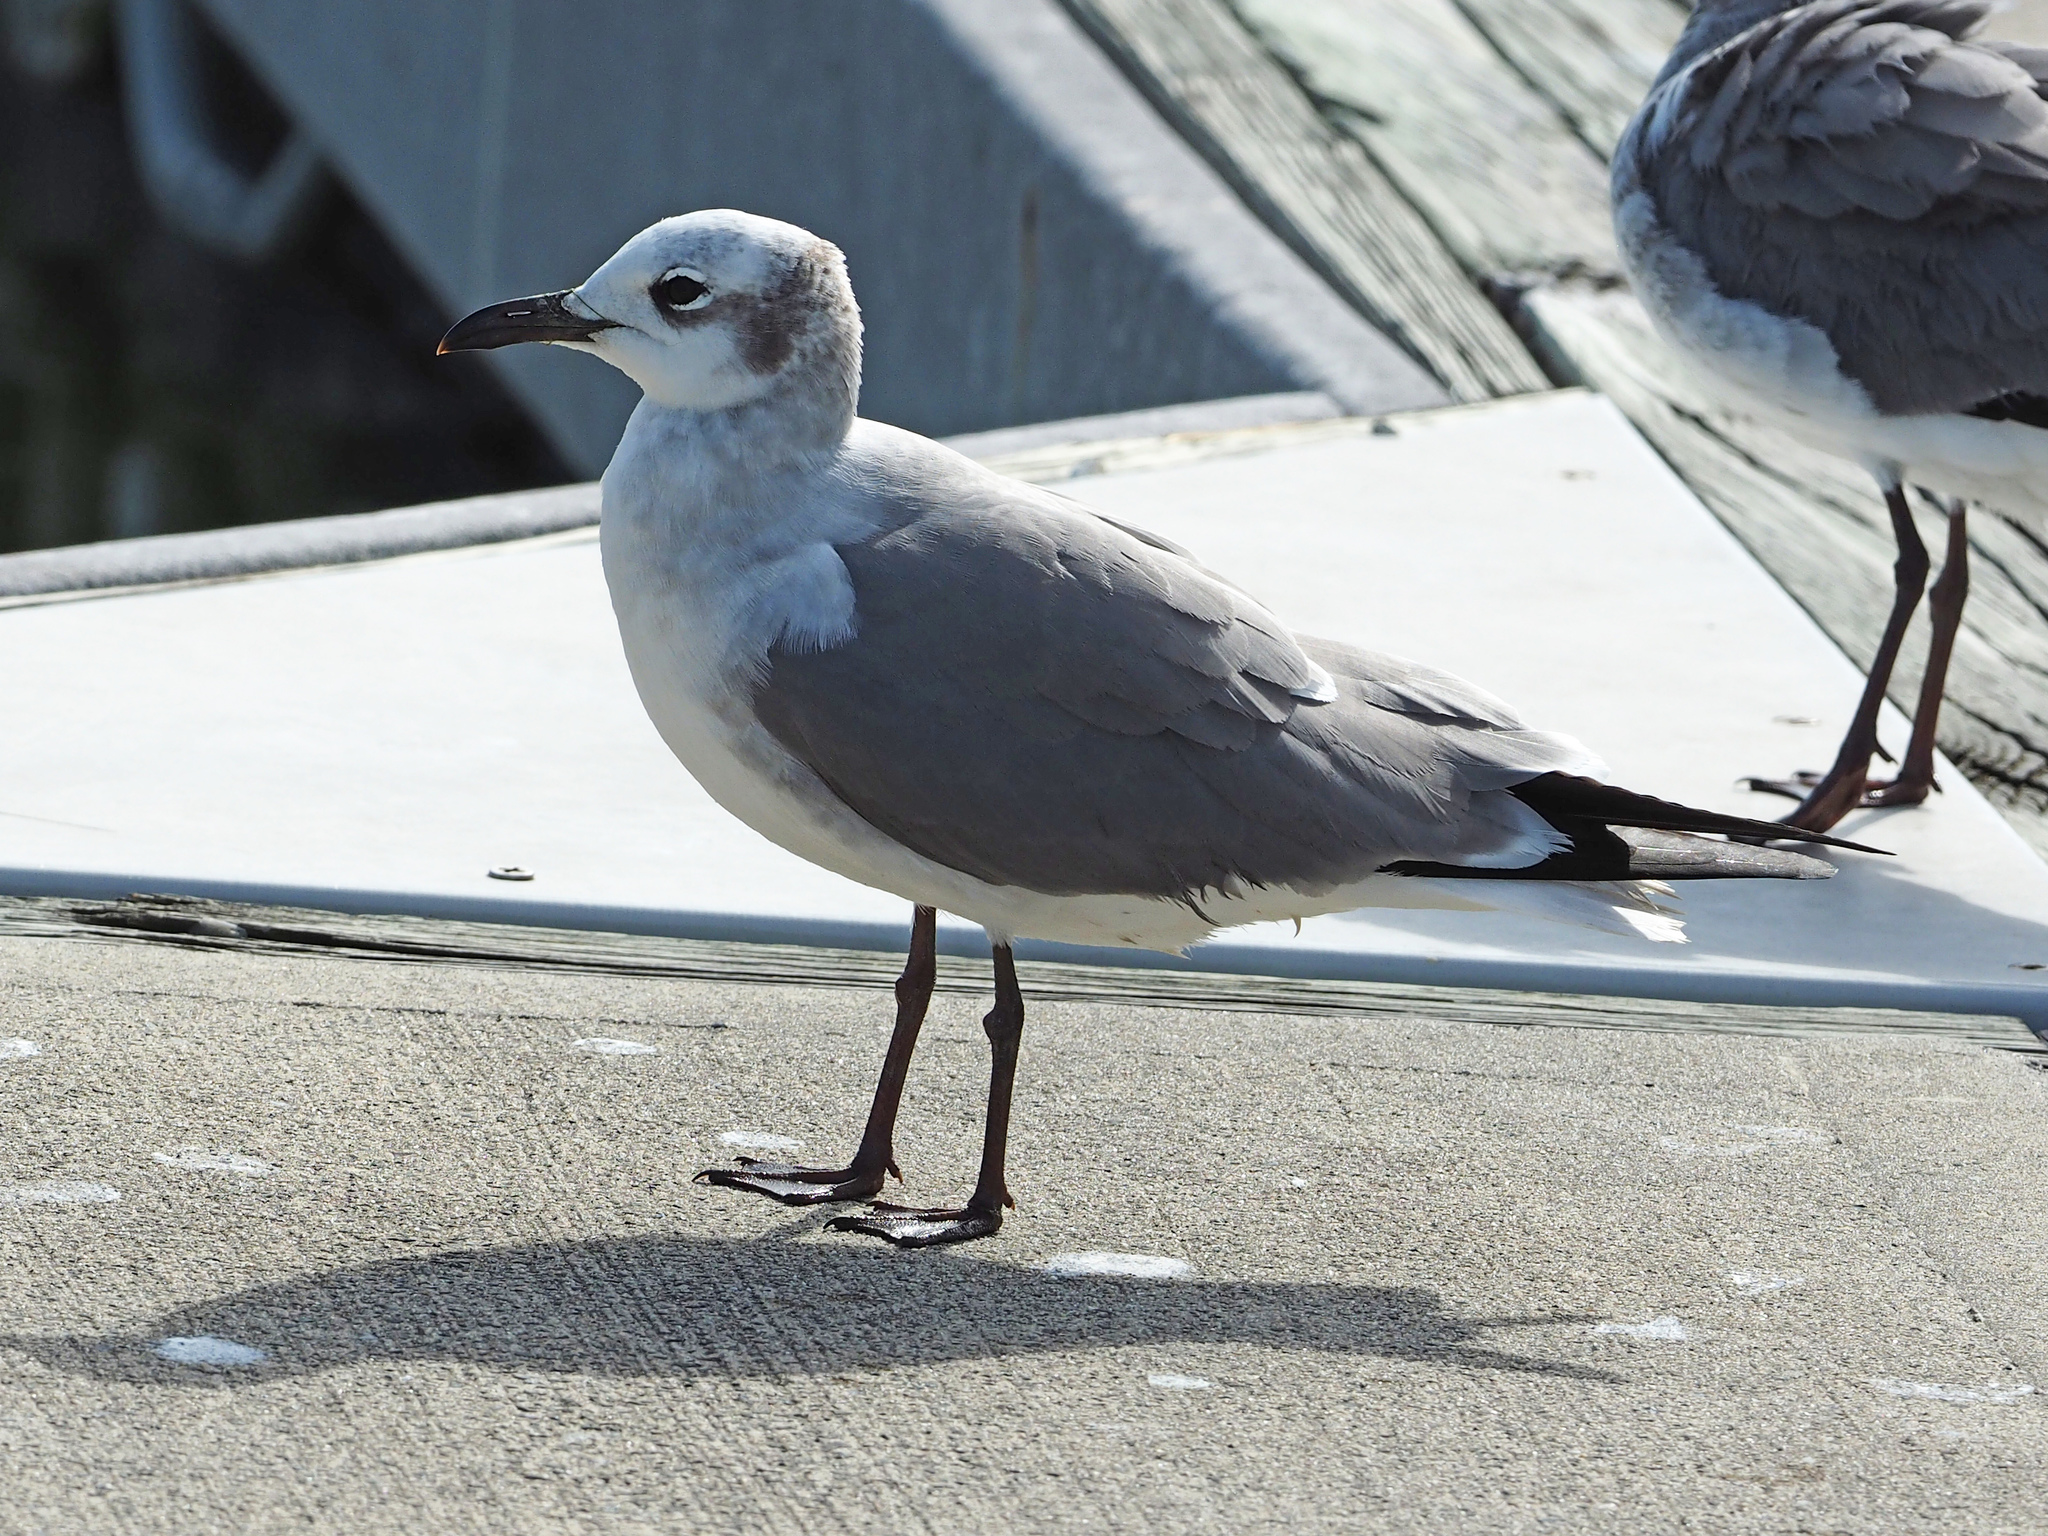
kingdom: Animalia
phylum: Chordata
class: Aves
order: Charadriiformes
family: Laridae
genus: Leucophaeus
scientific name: Leucophaeus atricilla
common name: Laughing gull
